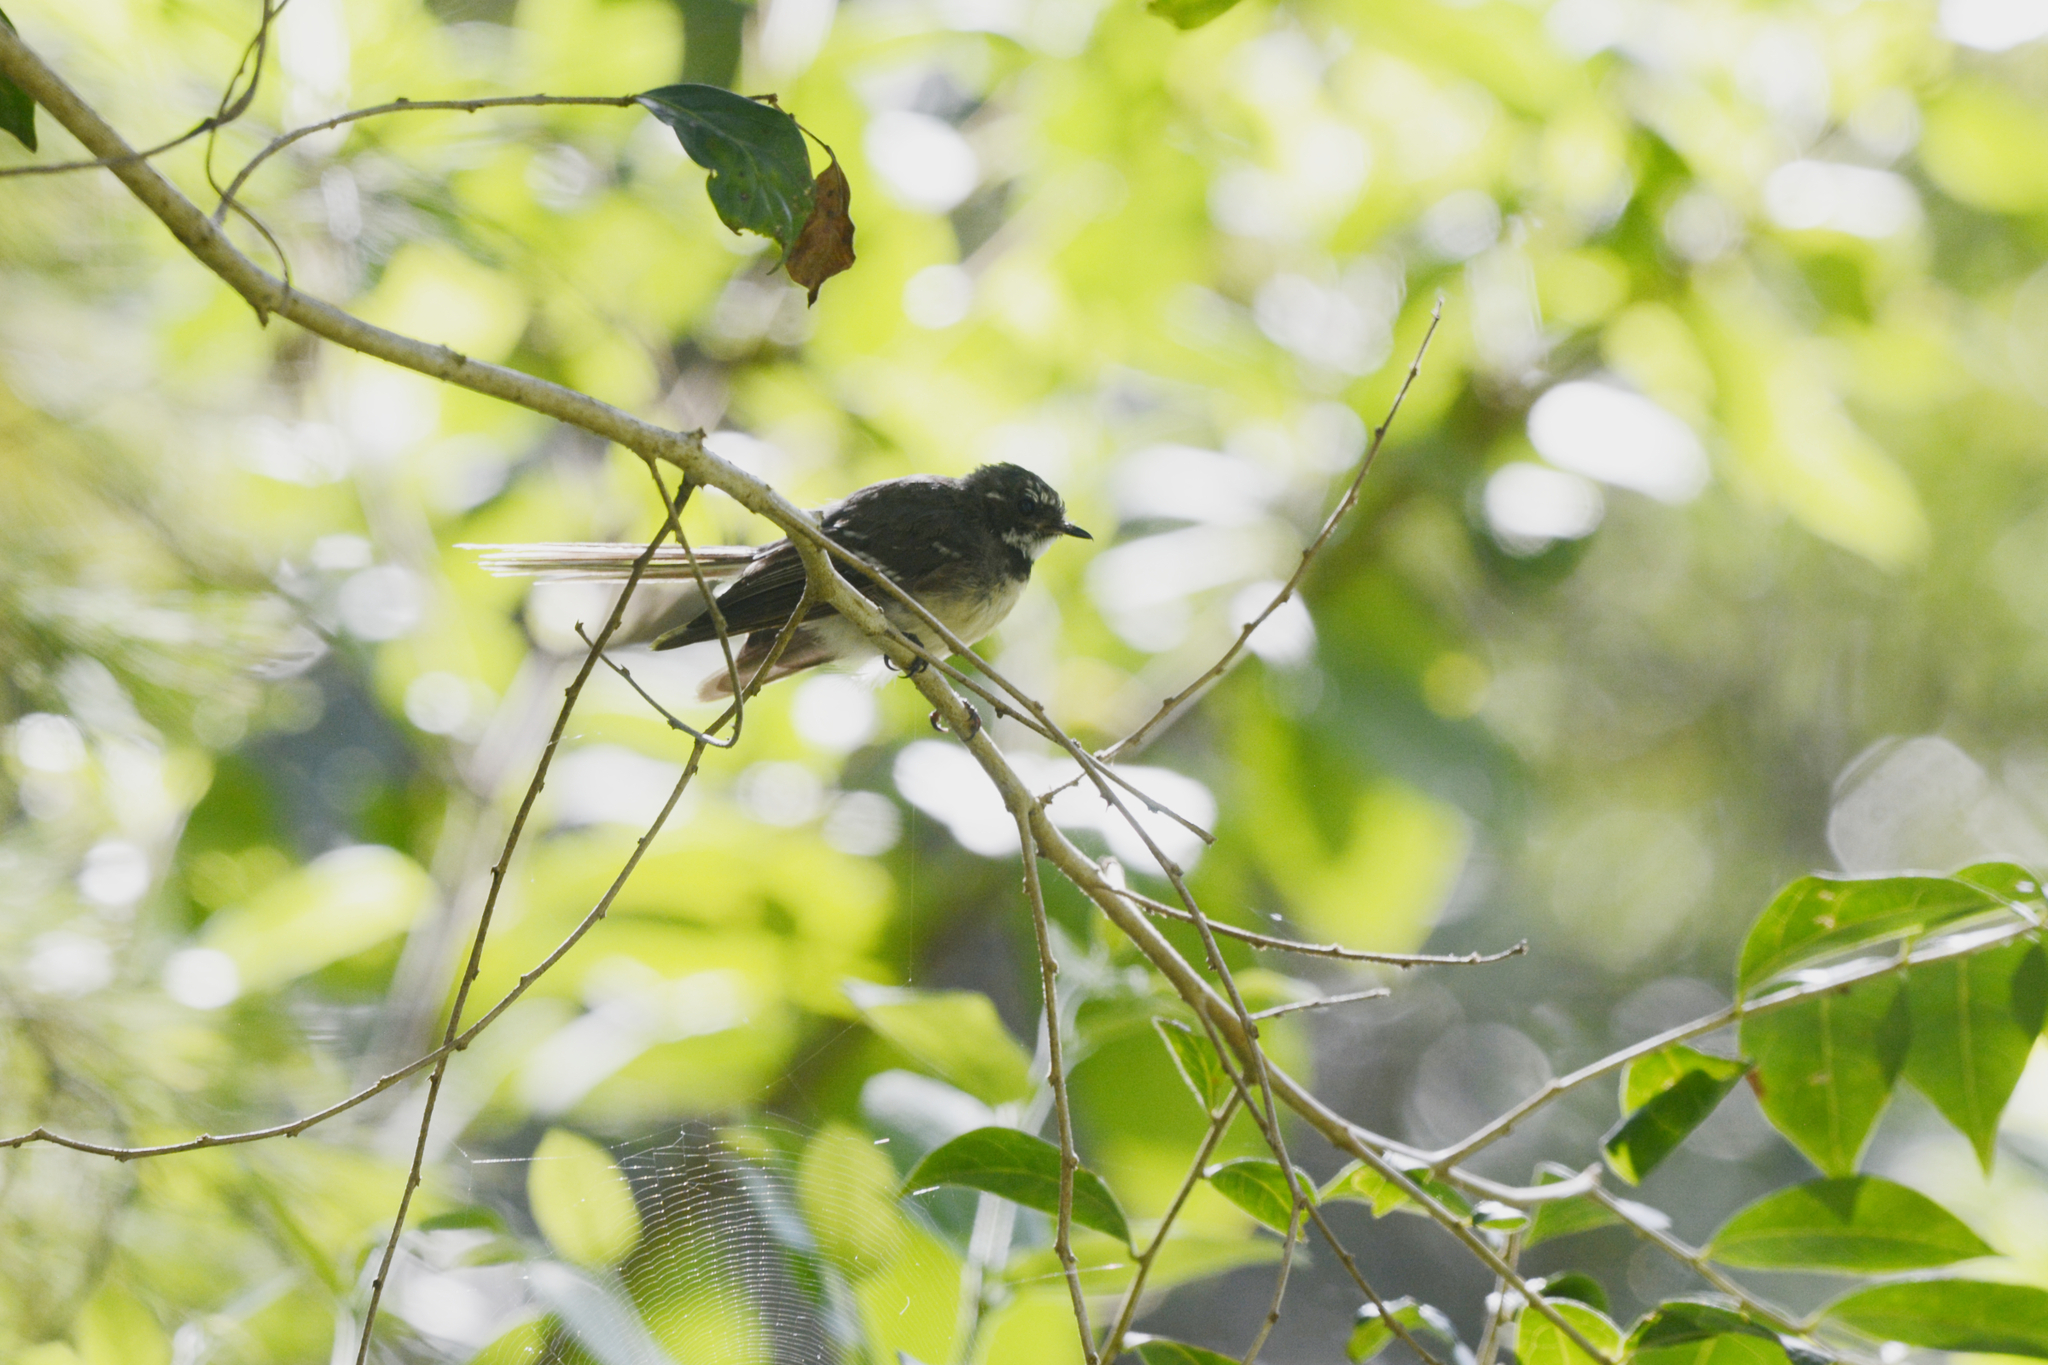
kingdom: Animalia
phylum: Chordata
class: Aves
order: Passeriformes
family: Rhipiduridae
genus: Rhipidura
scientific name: Rhipidura albiscapa
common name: Grey fantail
